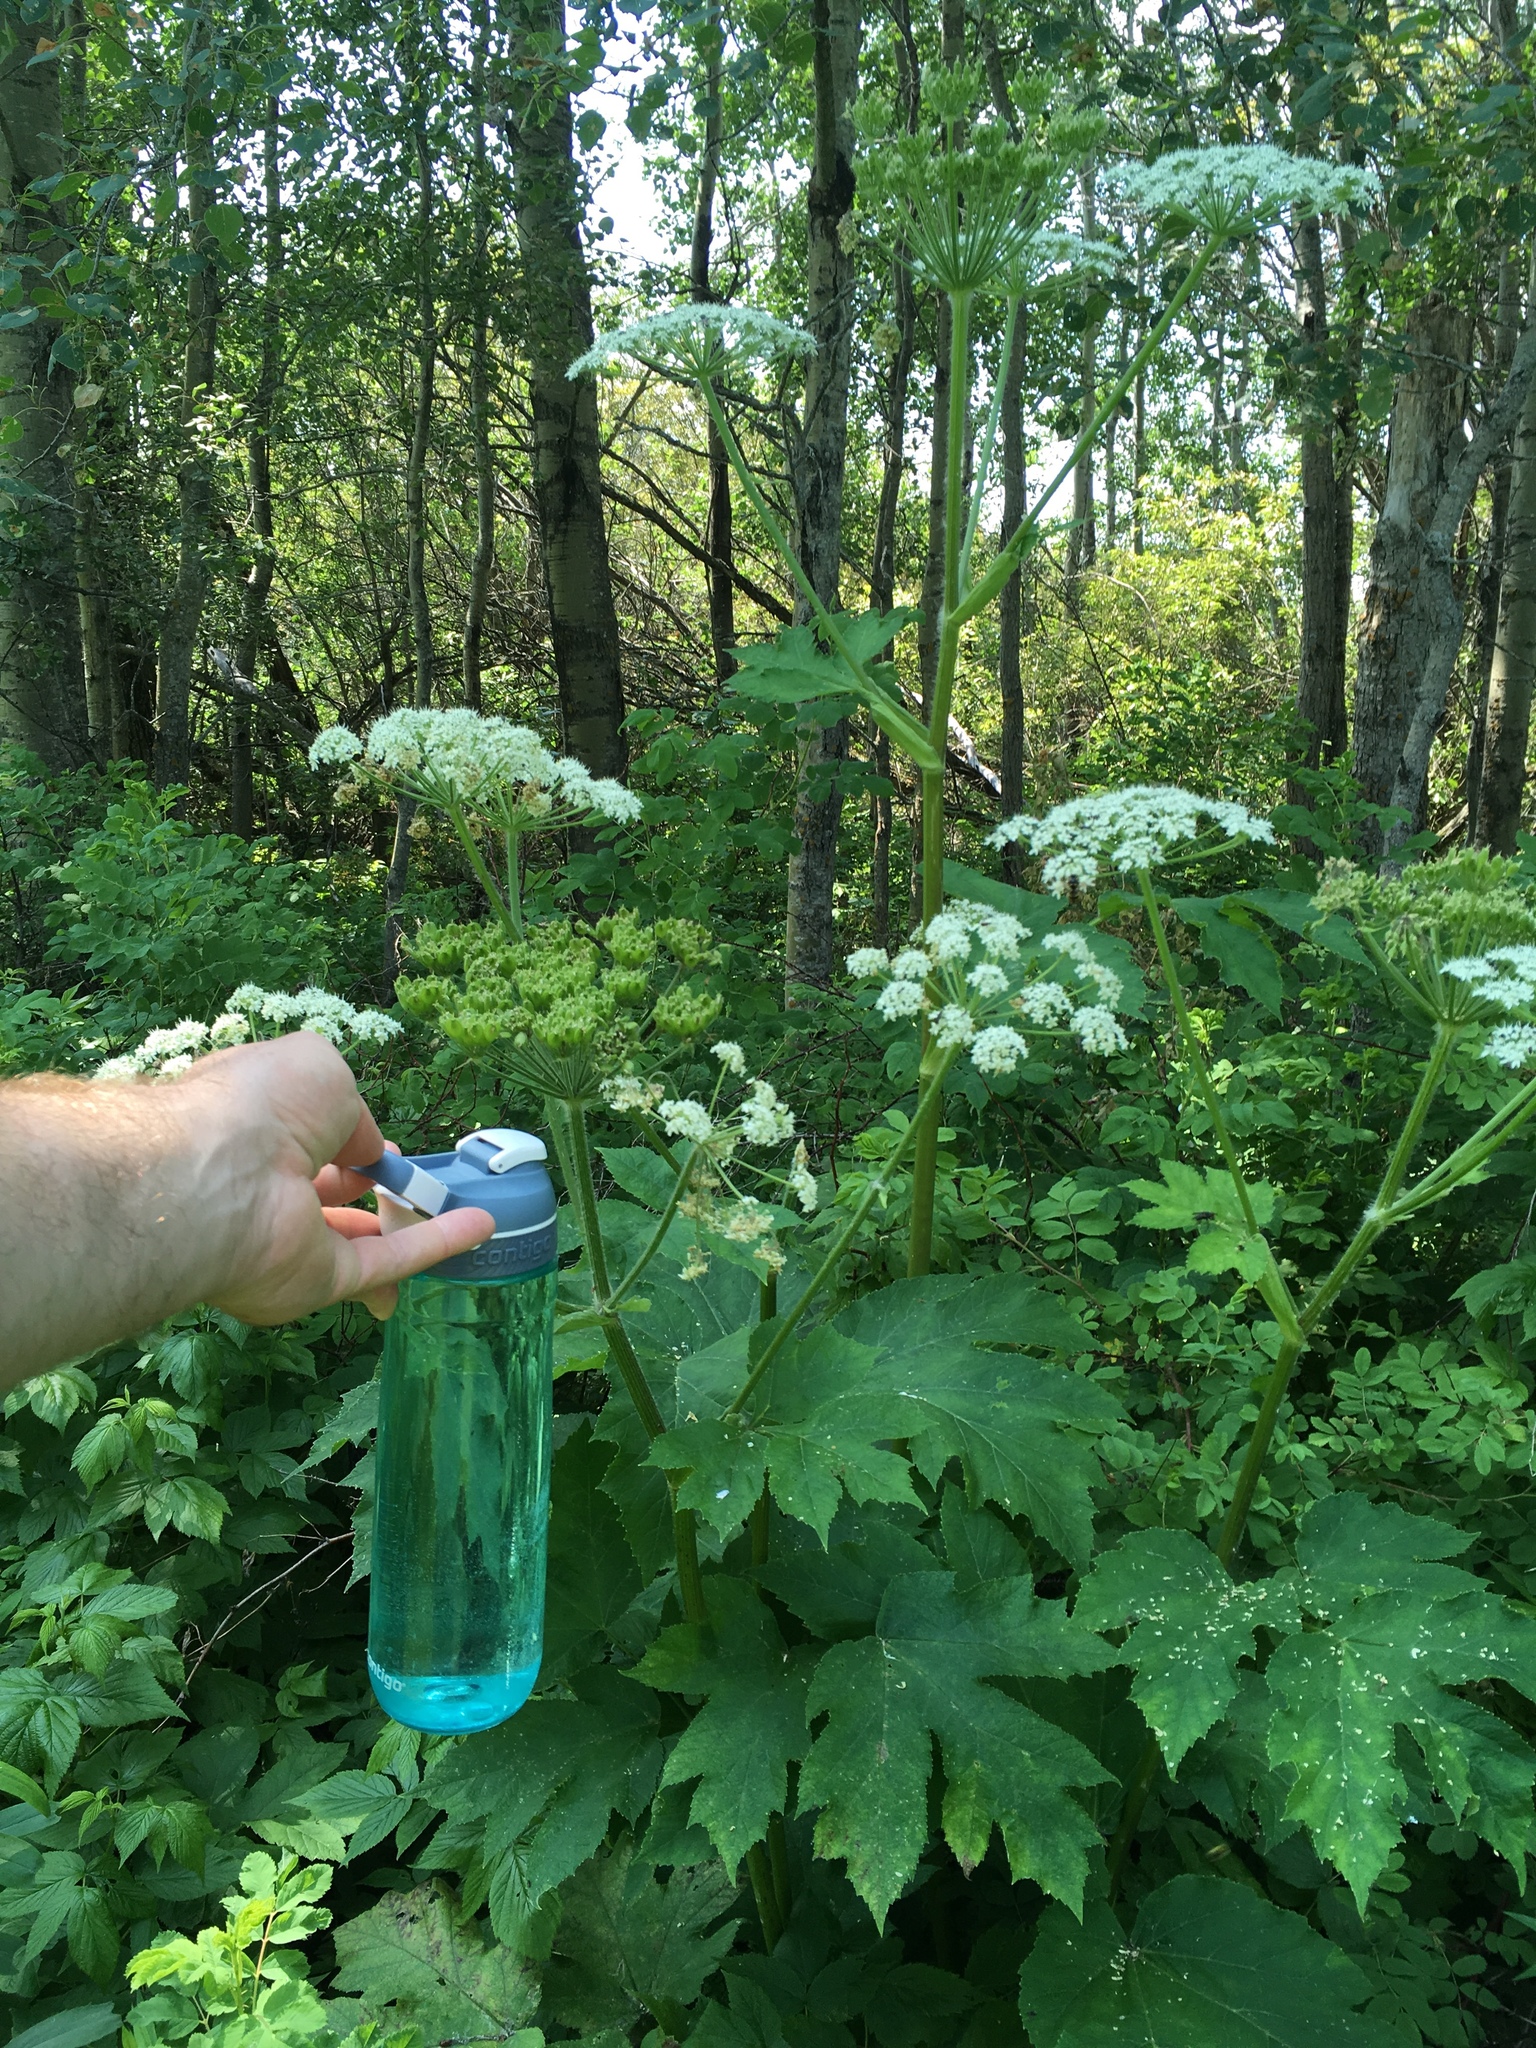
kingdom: Plantae
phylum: Tracheophyta
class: Magnoliopsida
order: Apiales
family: Apiaceae
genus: Heracleum
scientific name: Heracleum maximum
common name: American cow parsnip
